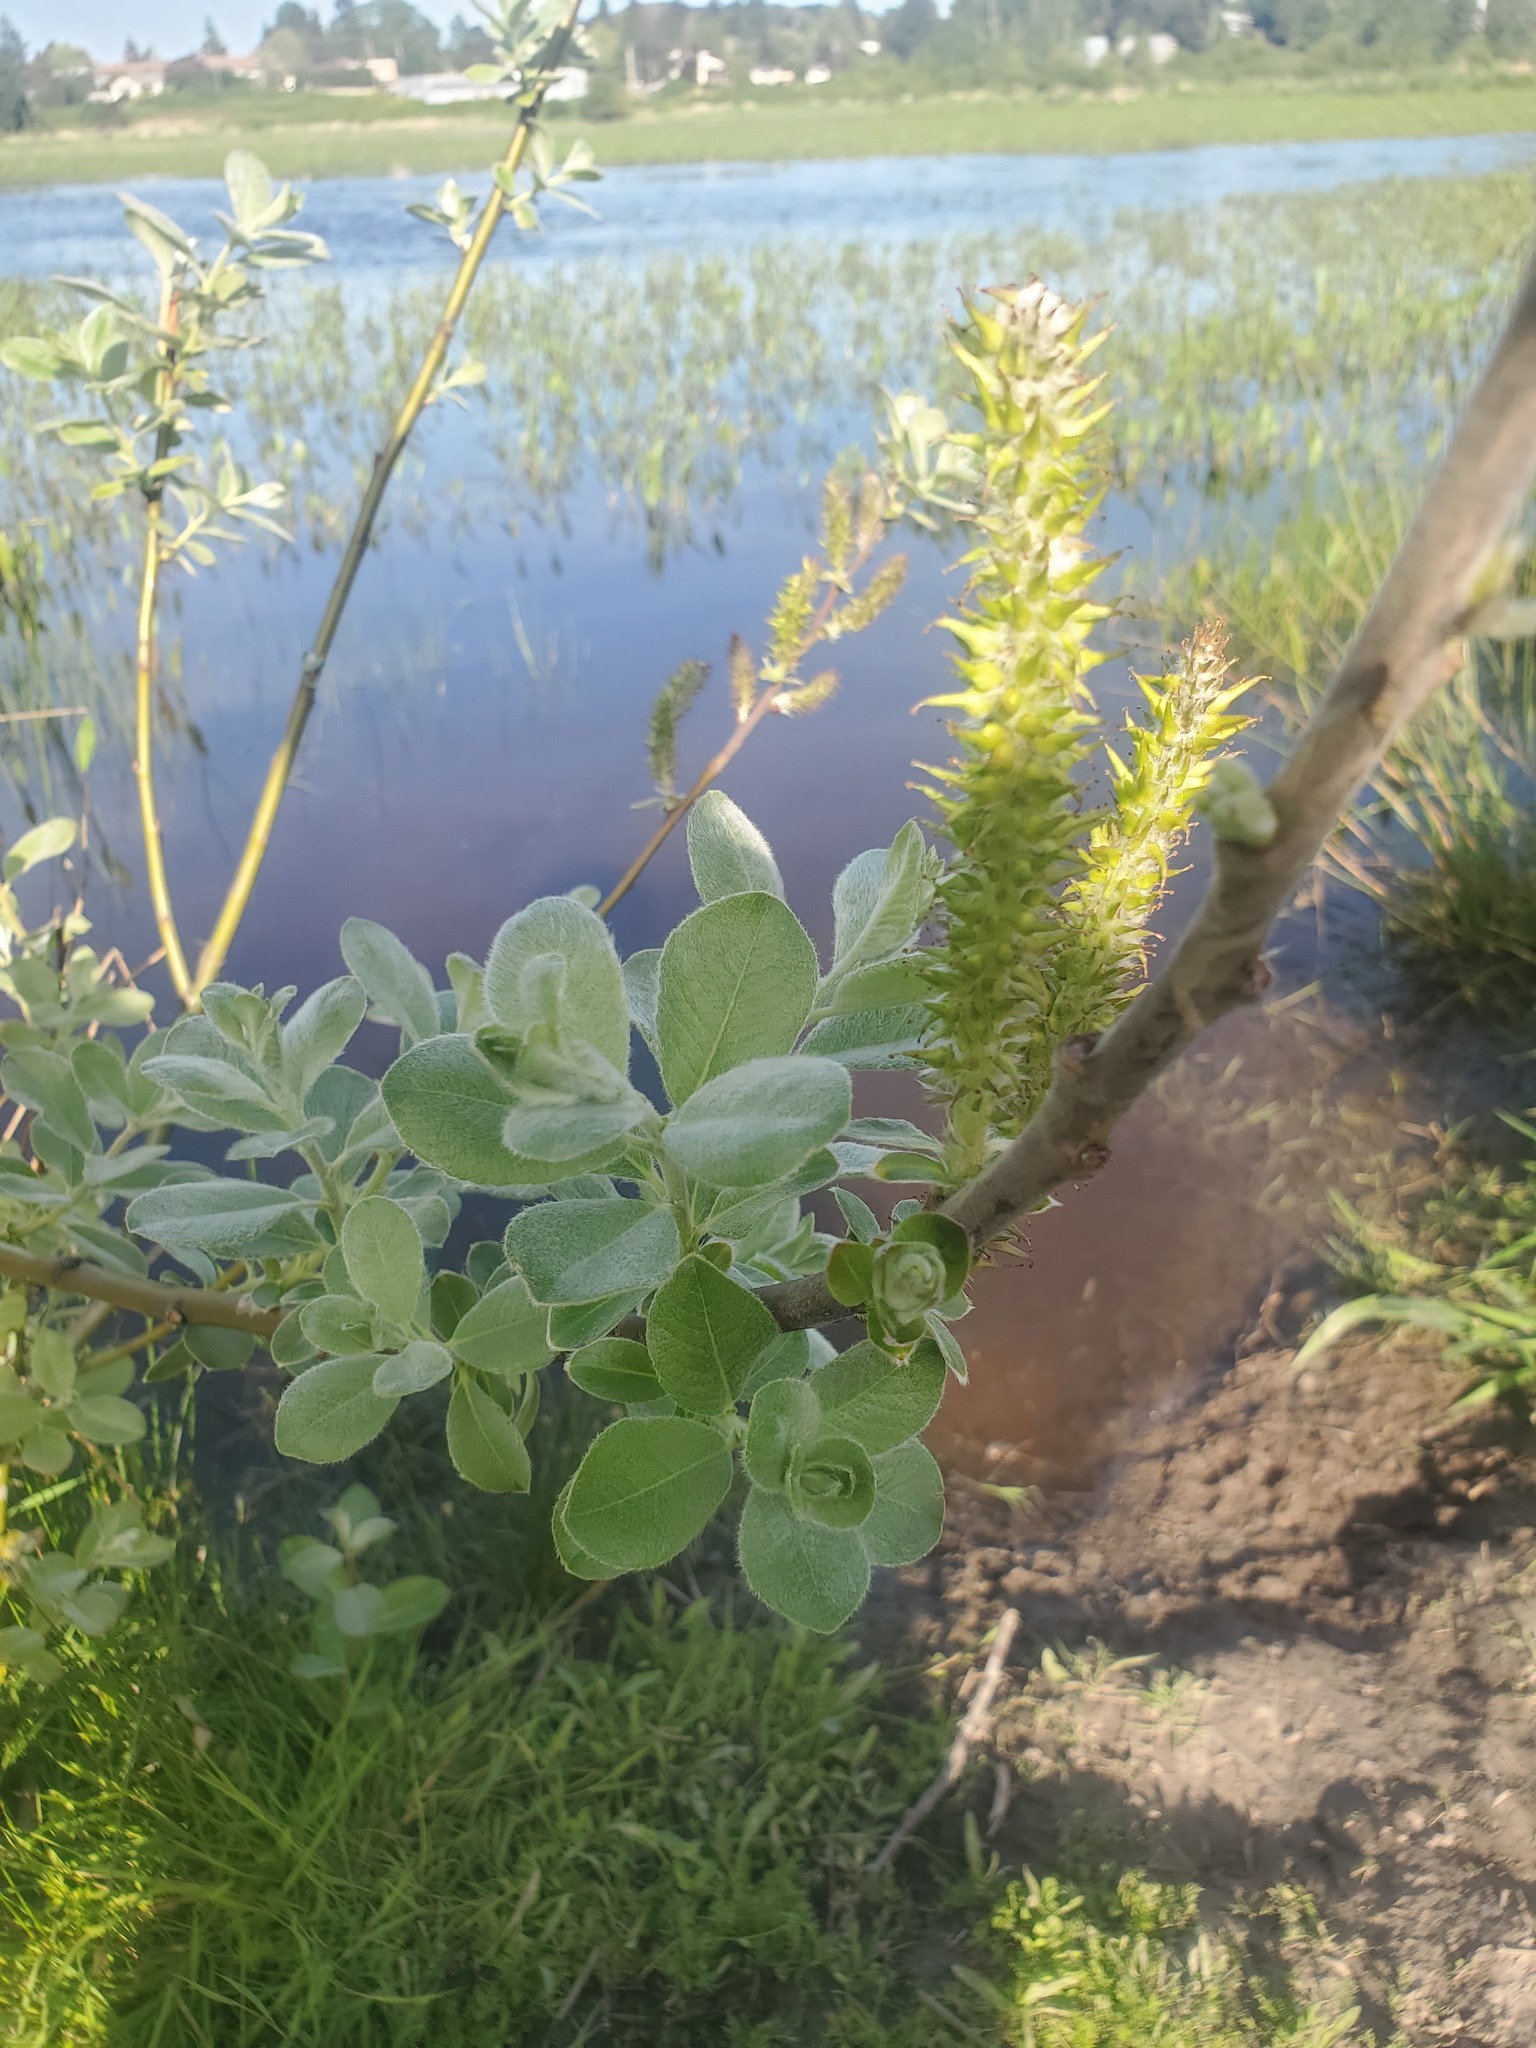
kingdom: Plantae
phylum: Tracheophyta
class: Magnoliopsida
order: Malpighiales
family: Salicaceae
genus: Salix
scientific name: Salix sitchensis
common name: Sitka willow
